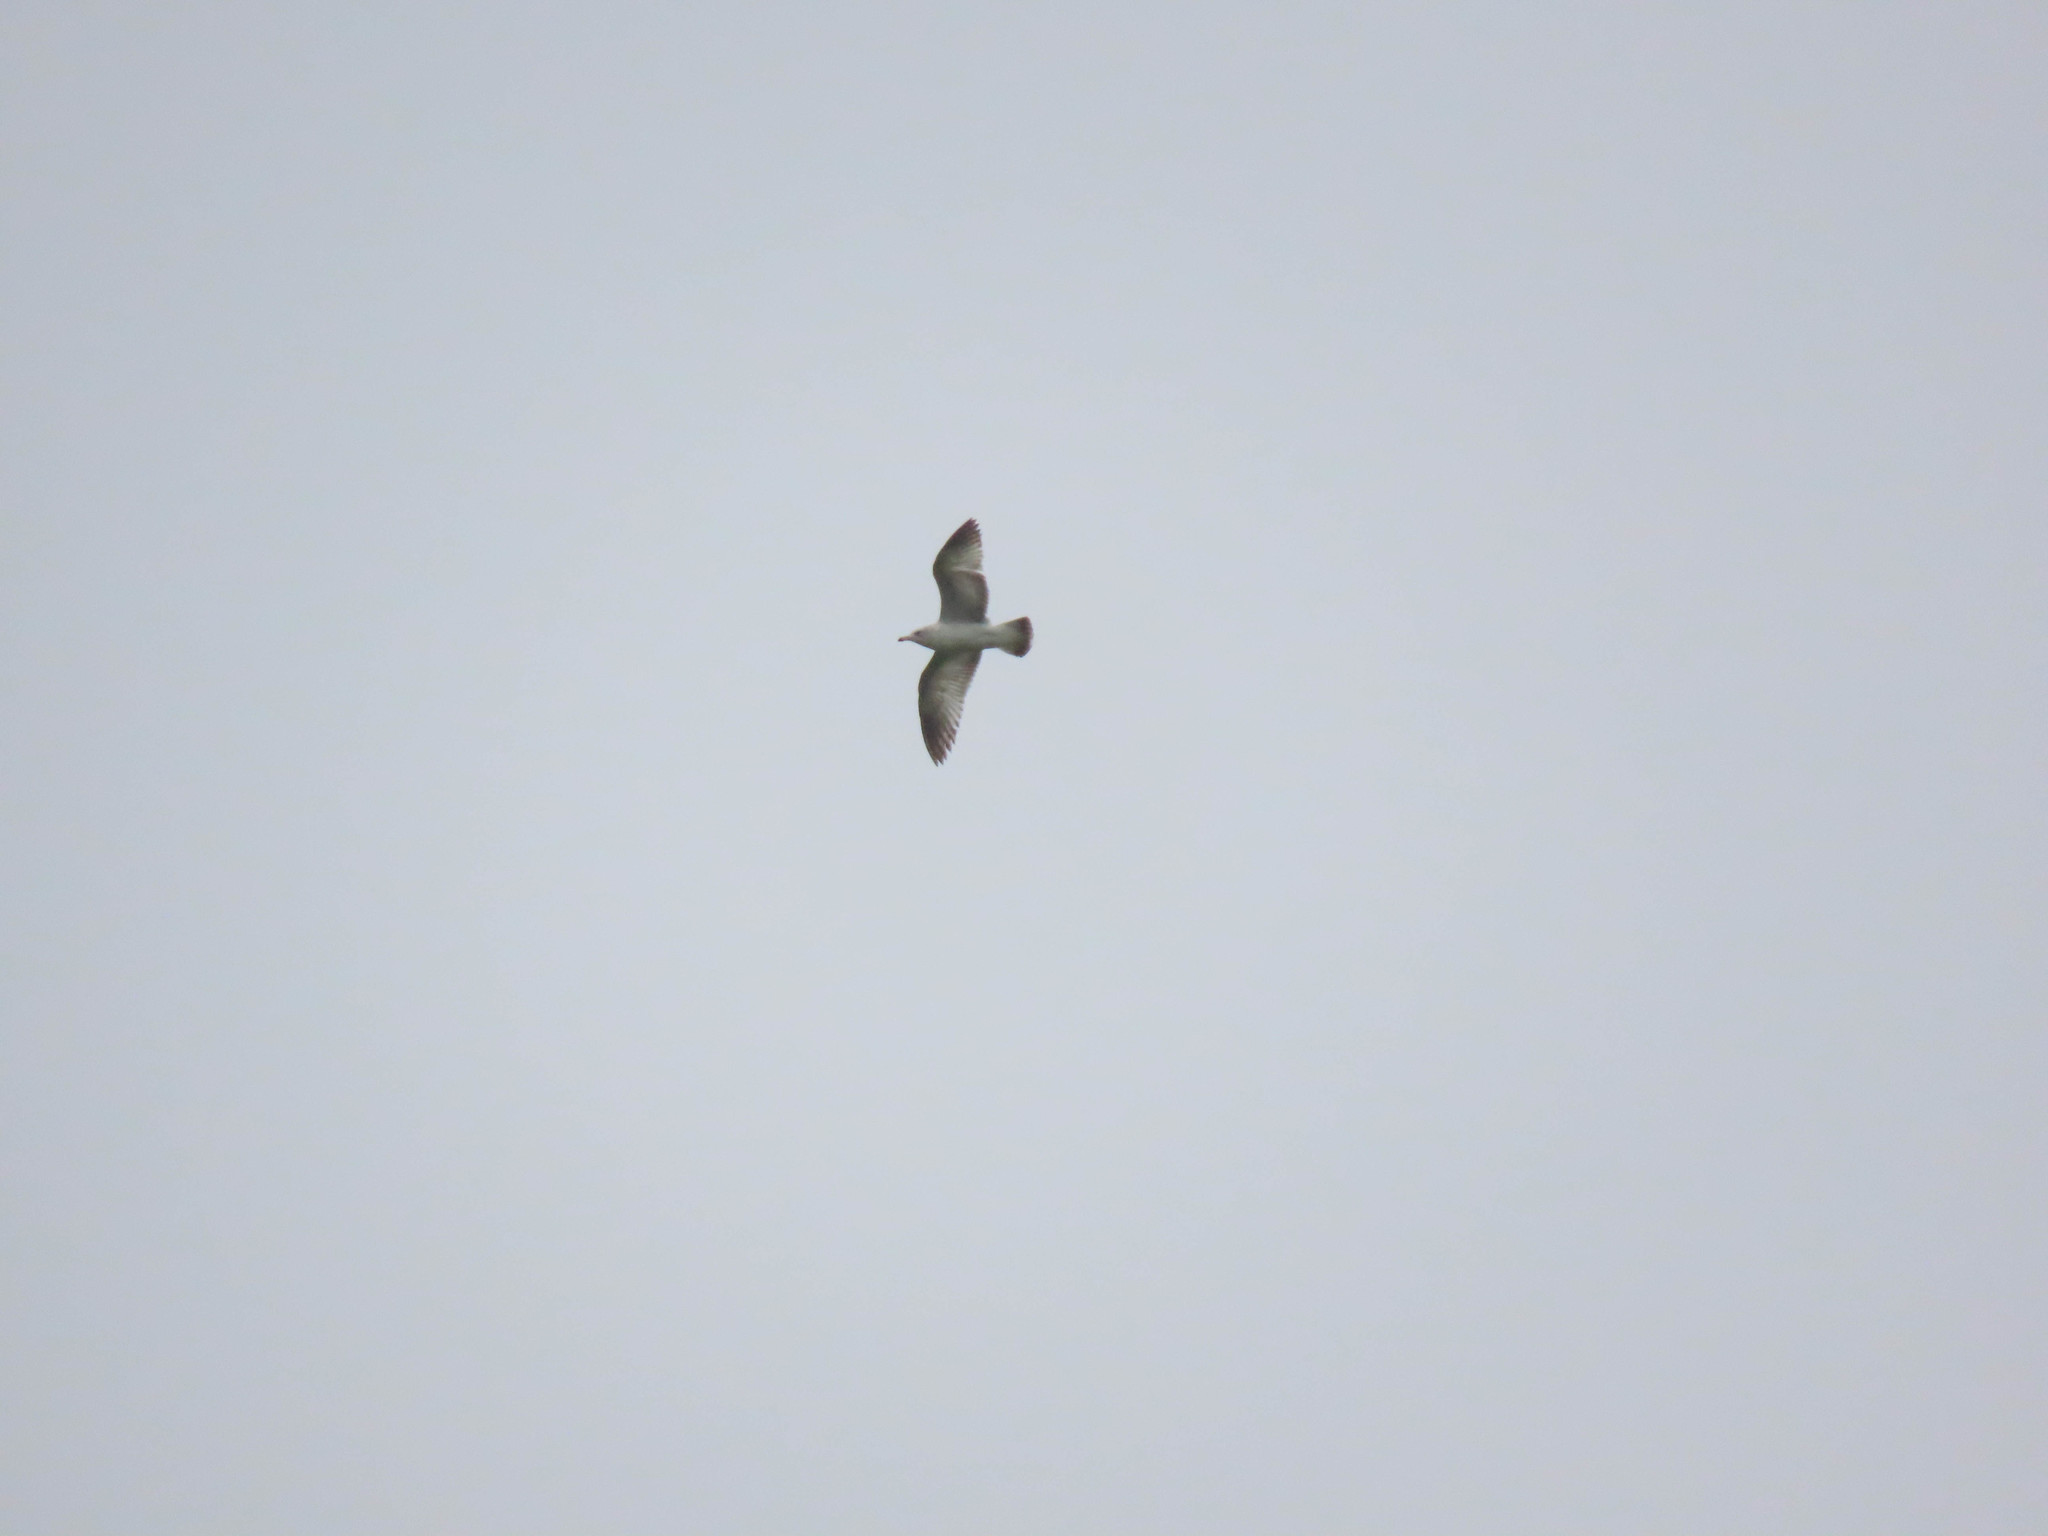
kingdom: Animalia
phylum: Chordata
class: Aves
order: Charadriiformes
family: Laridae
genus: Larus
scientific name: Larus delawarensis
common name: Ring-billed gull
